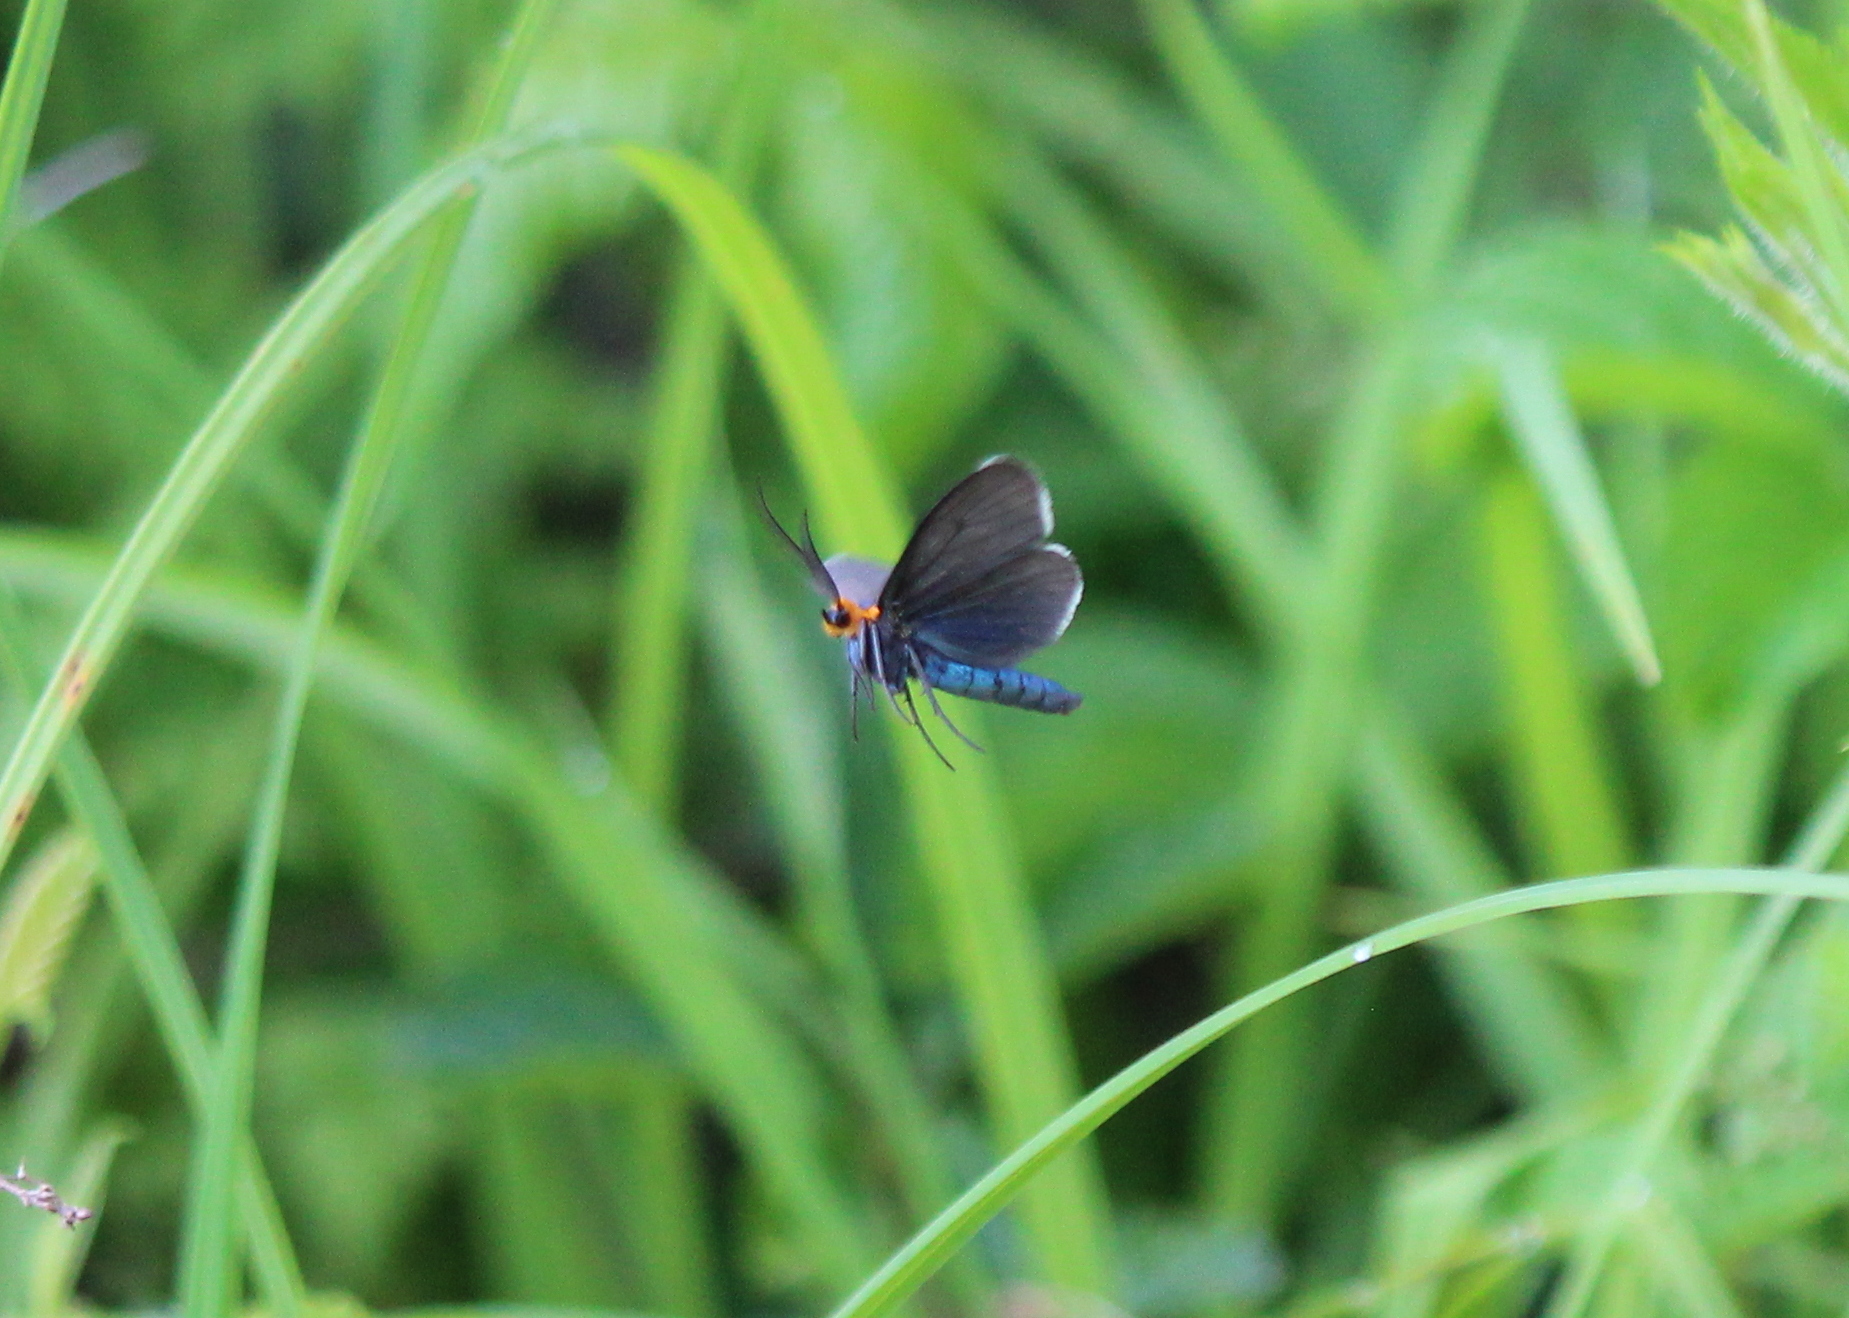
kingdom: Animalia
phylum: Arthropoda
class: Insecta
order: Lepidoptera
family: Erebidae
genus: Ctenucha
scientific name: Ctenucha virginica
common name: Virginia ctenucha moth
